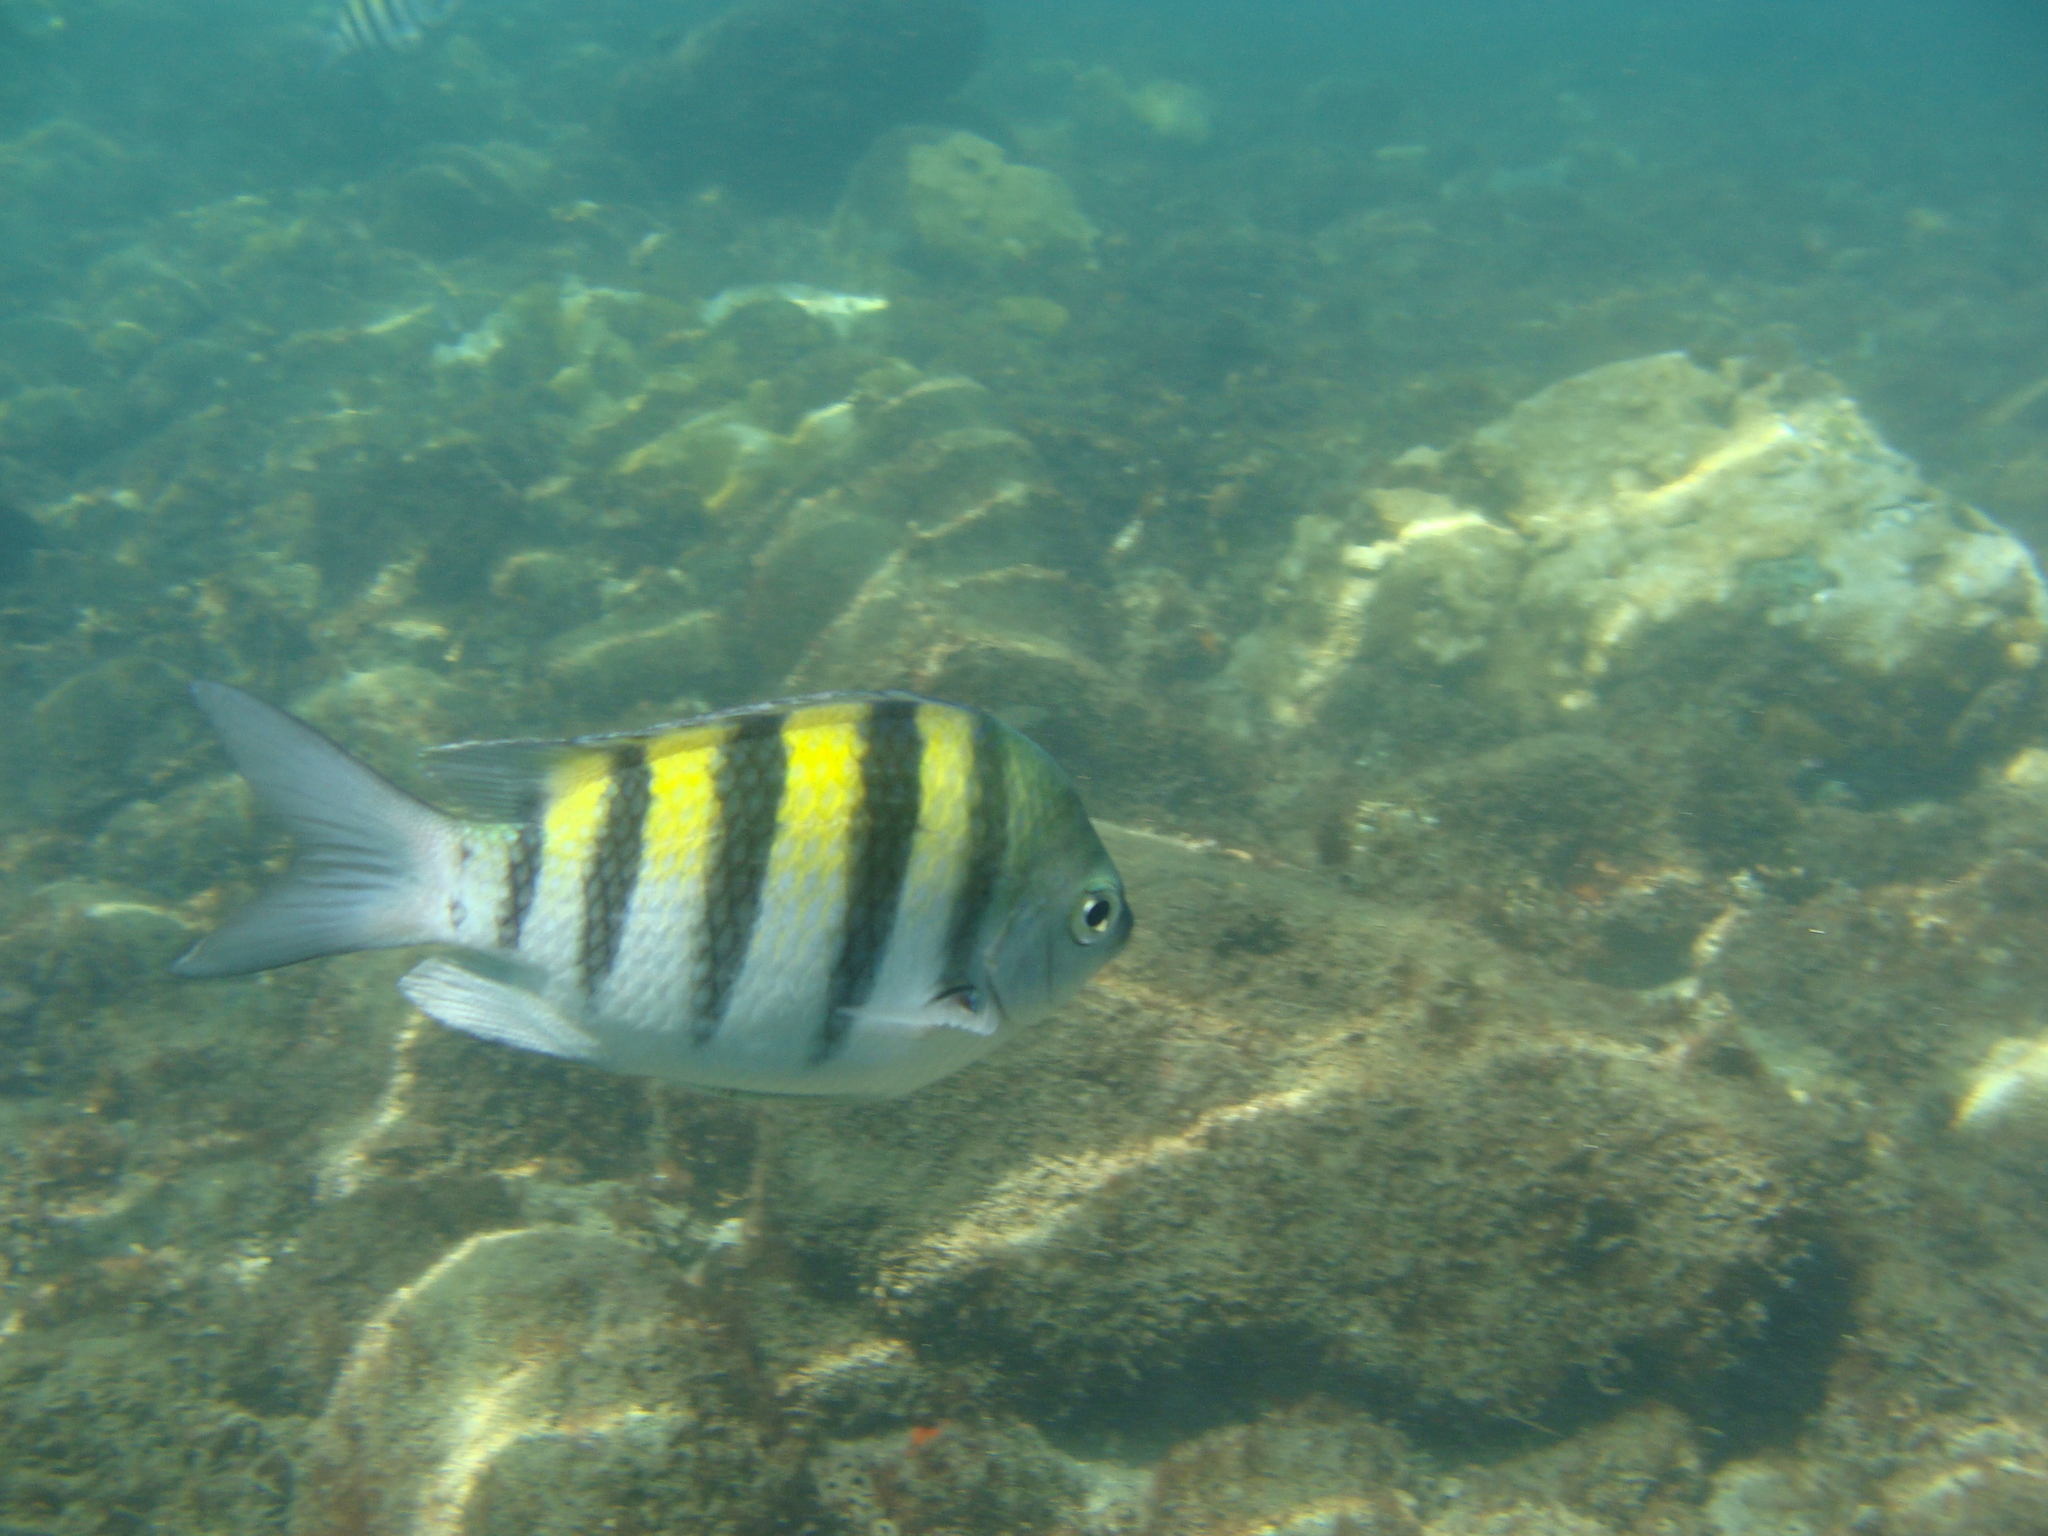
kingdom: Animalia
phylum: Chordata
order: Perciformes
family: Pomacentridae
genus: Abudefduf
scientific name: Abudefduf saxatilis
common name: Sergeant major
